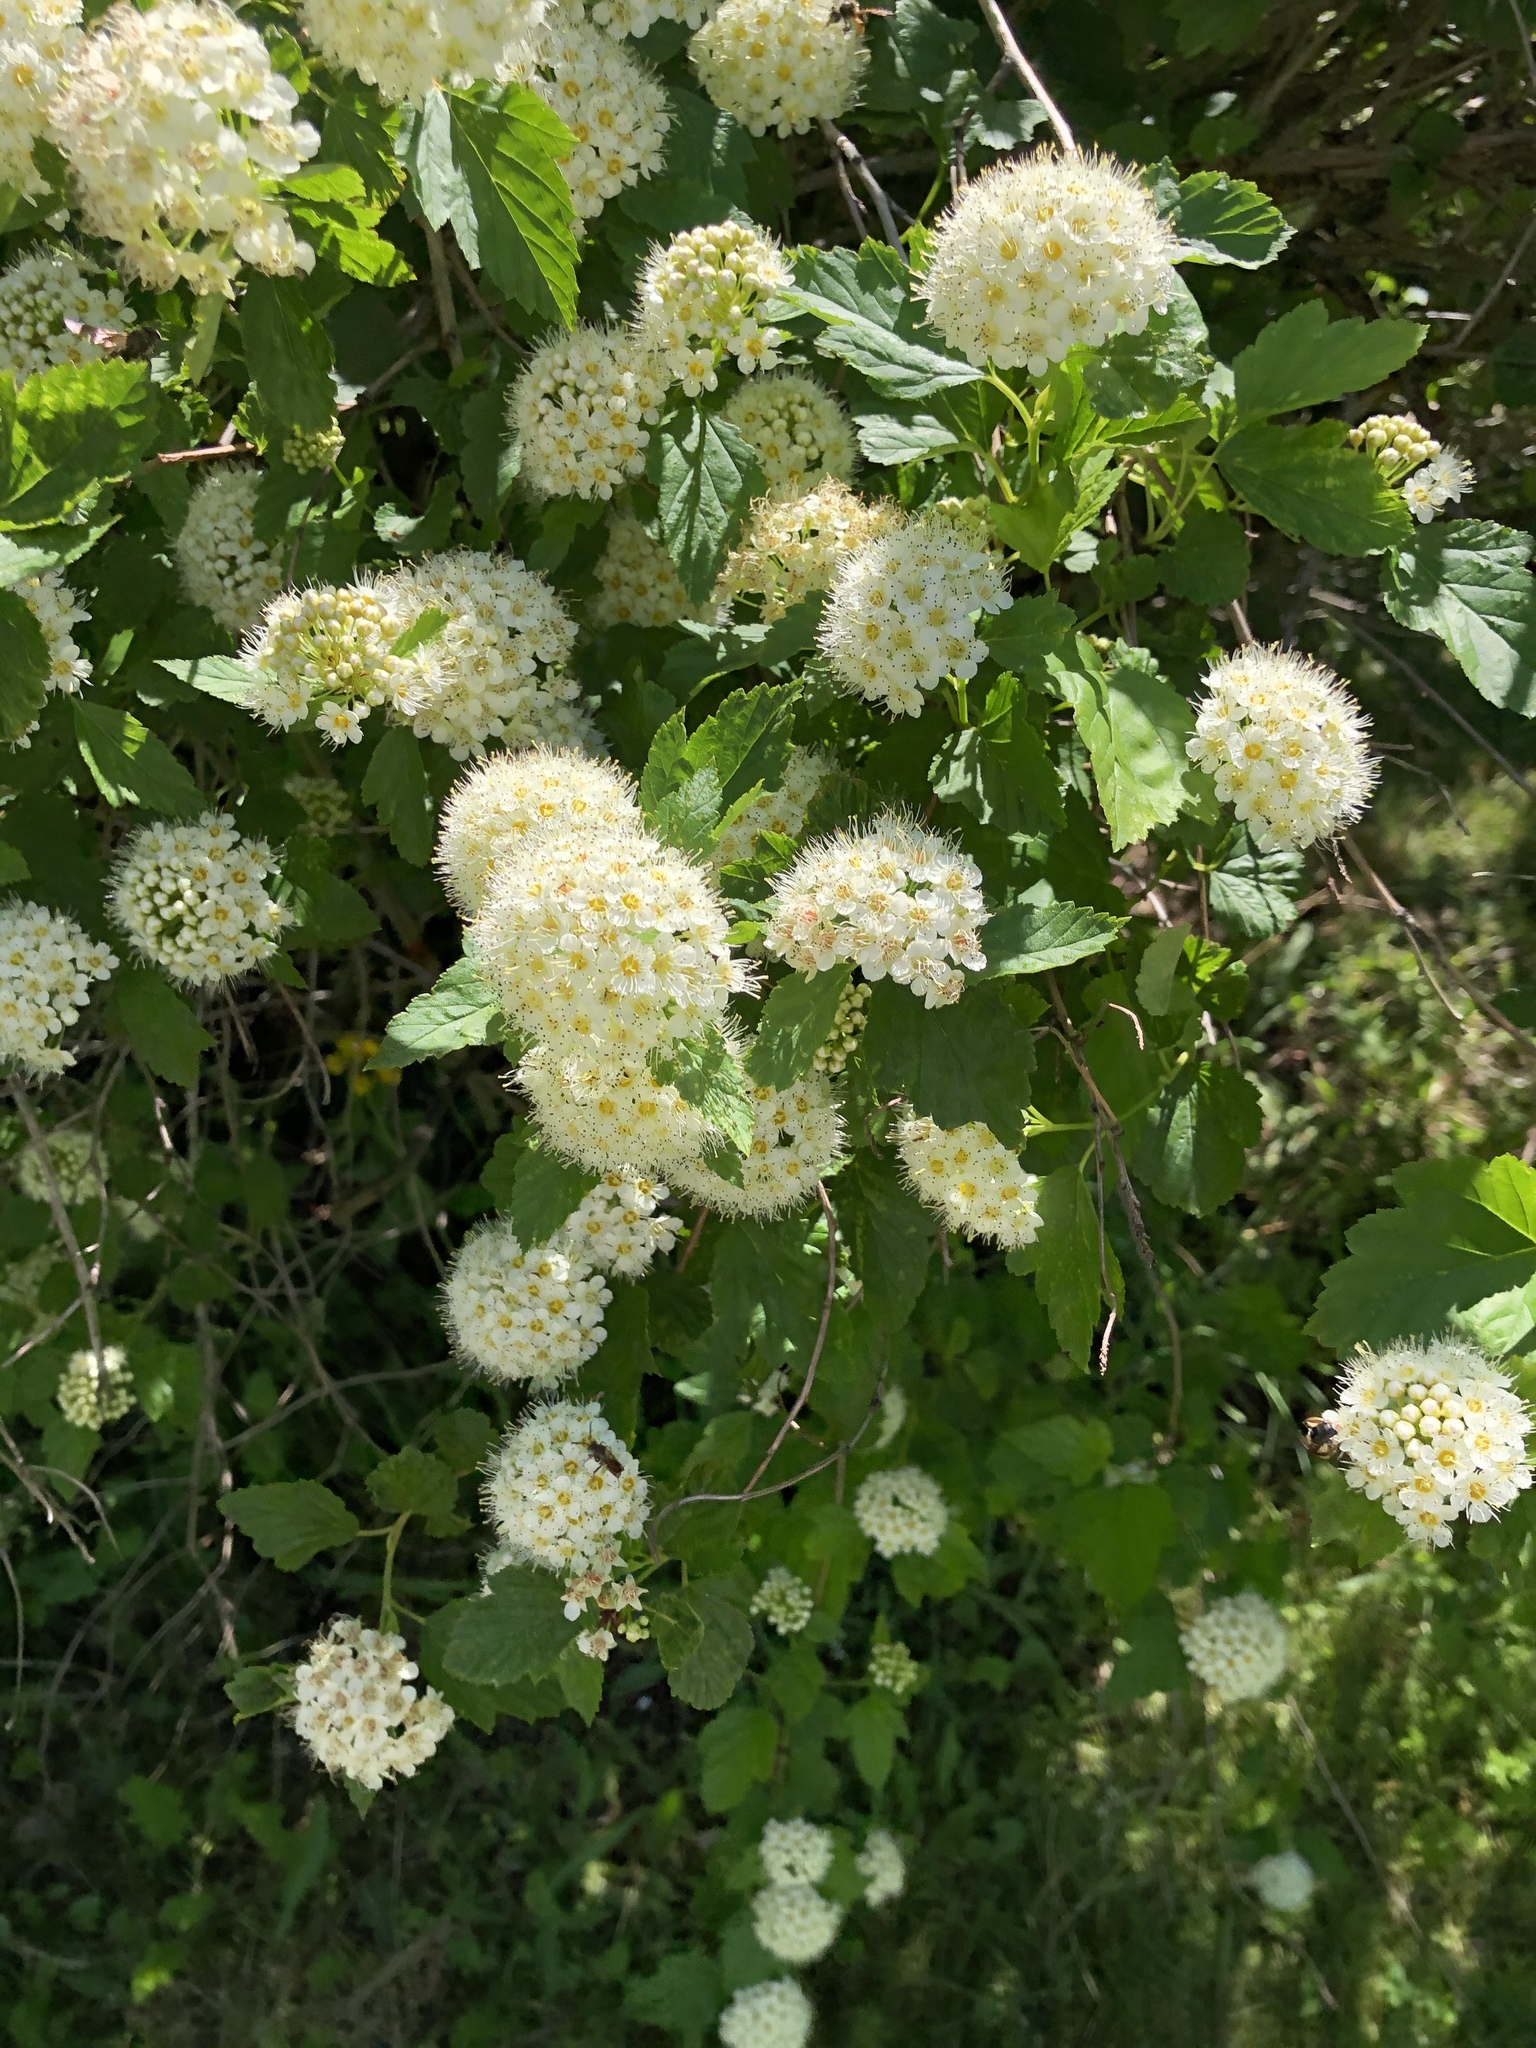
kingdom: Plantae
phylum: Tracheophyta
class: Magnoliopsida
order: Rosales
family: Rosaceae
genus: Physocarpus
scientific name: Physocarpus opulifolius
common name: Ninebark
